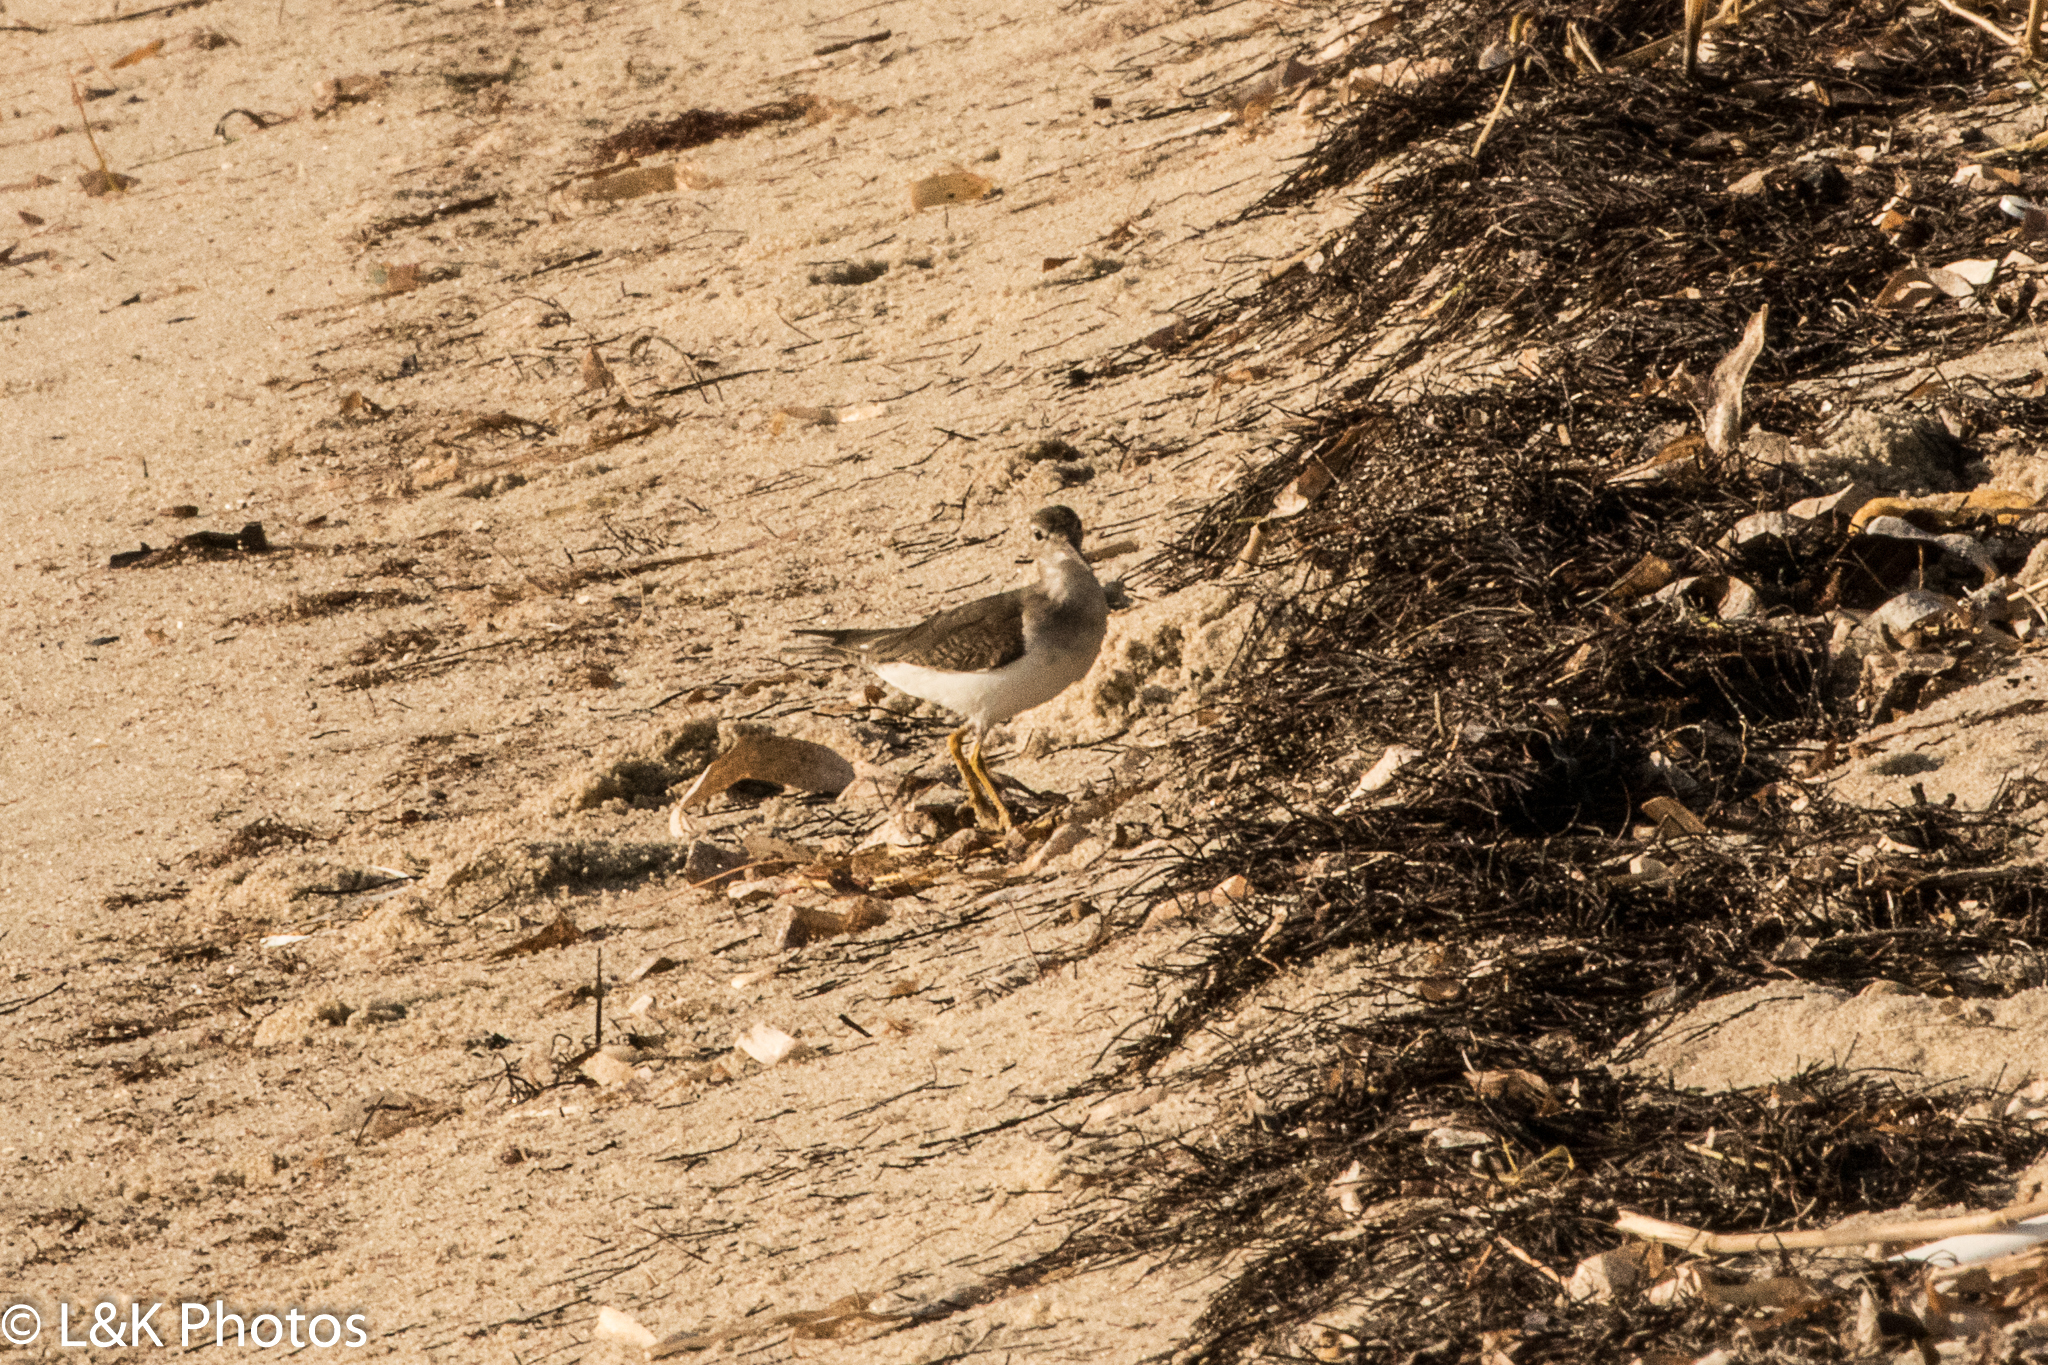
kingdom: Animalia
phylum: Chordata
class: Aves
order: Charadriiformes
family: Scolopacidae
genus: Actitis
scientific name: Actitis macularius
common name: Spotted sandpiper
